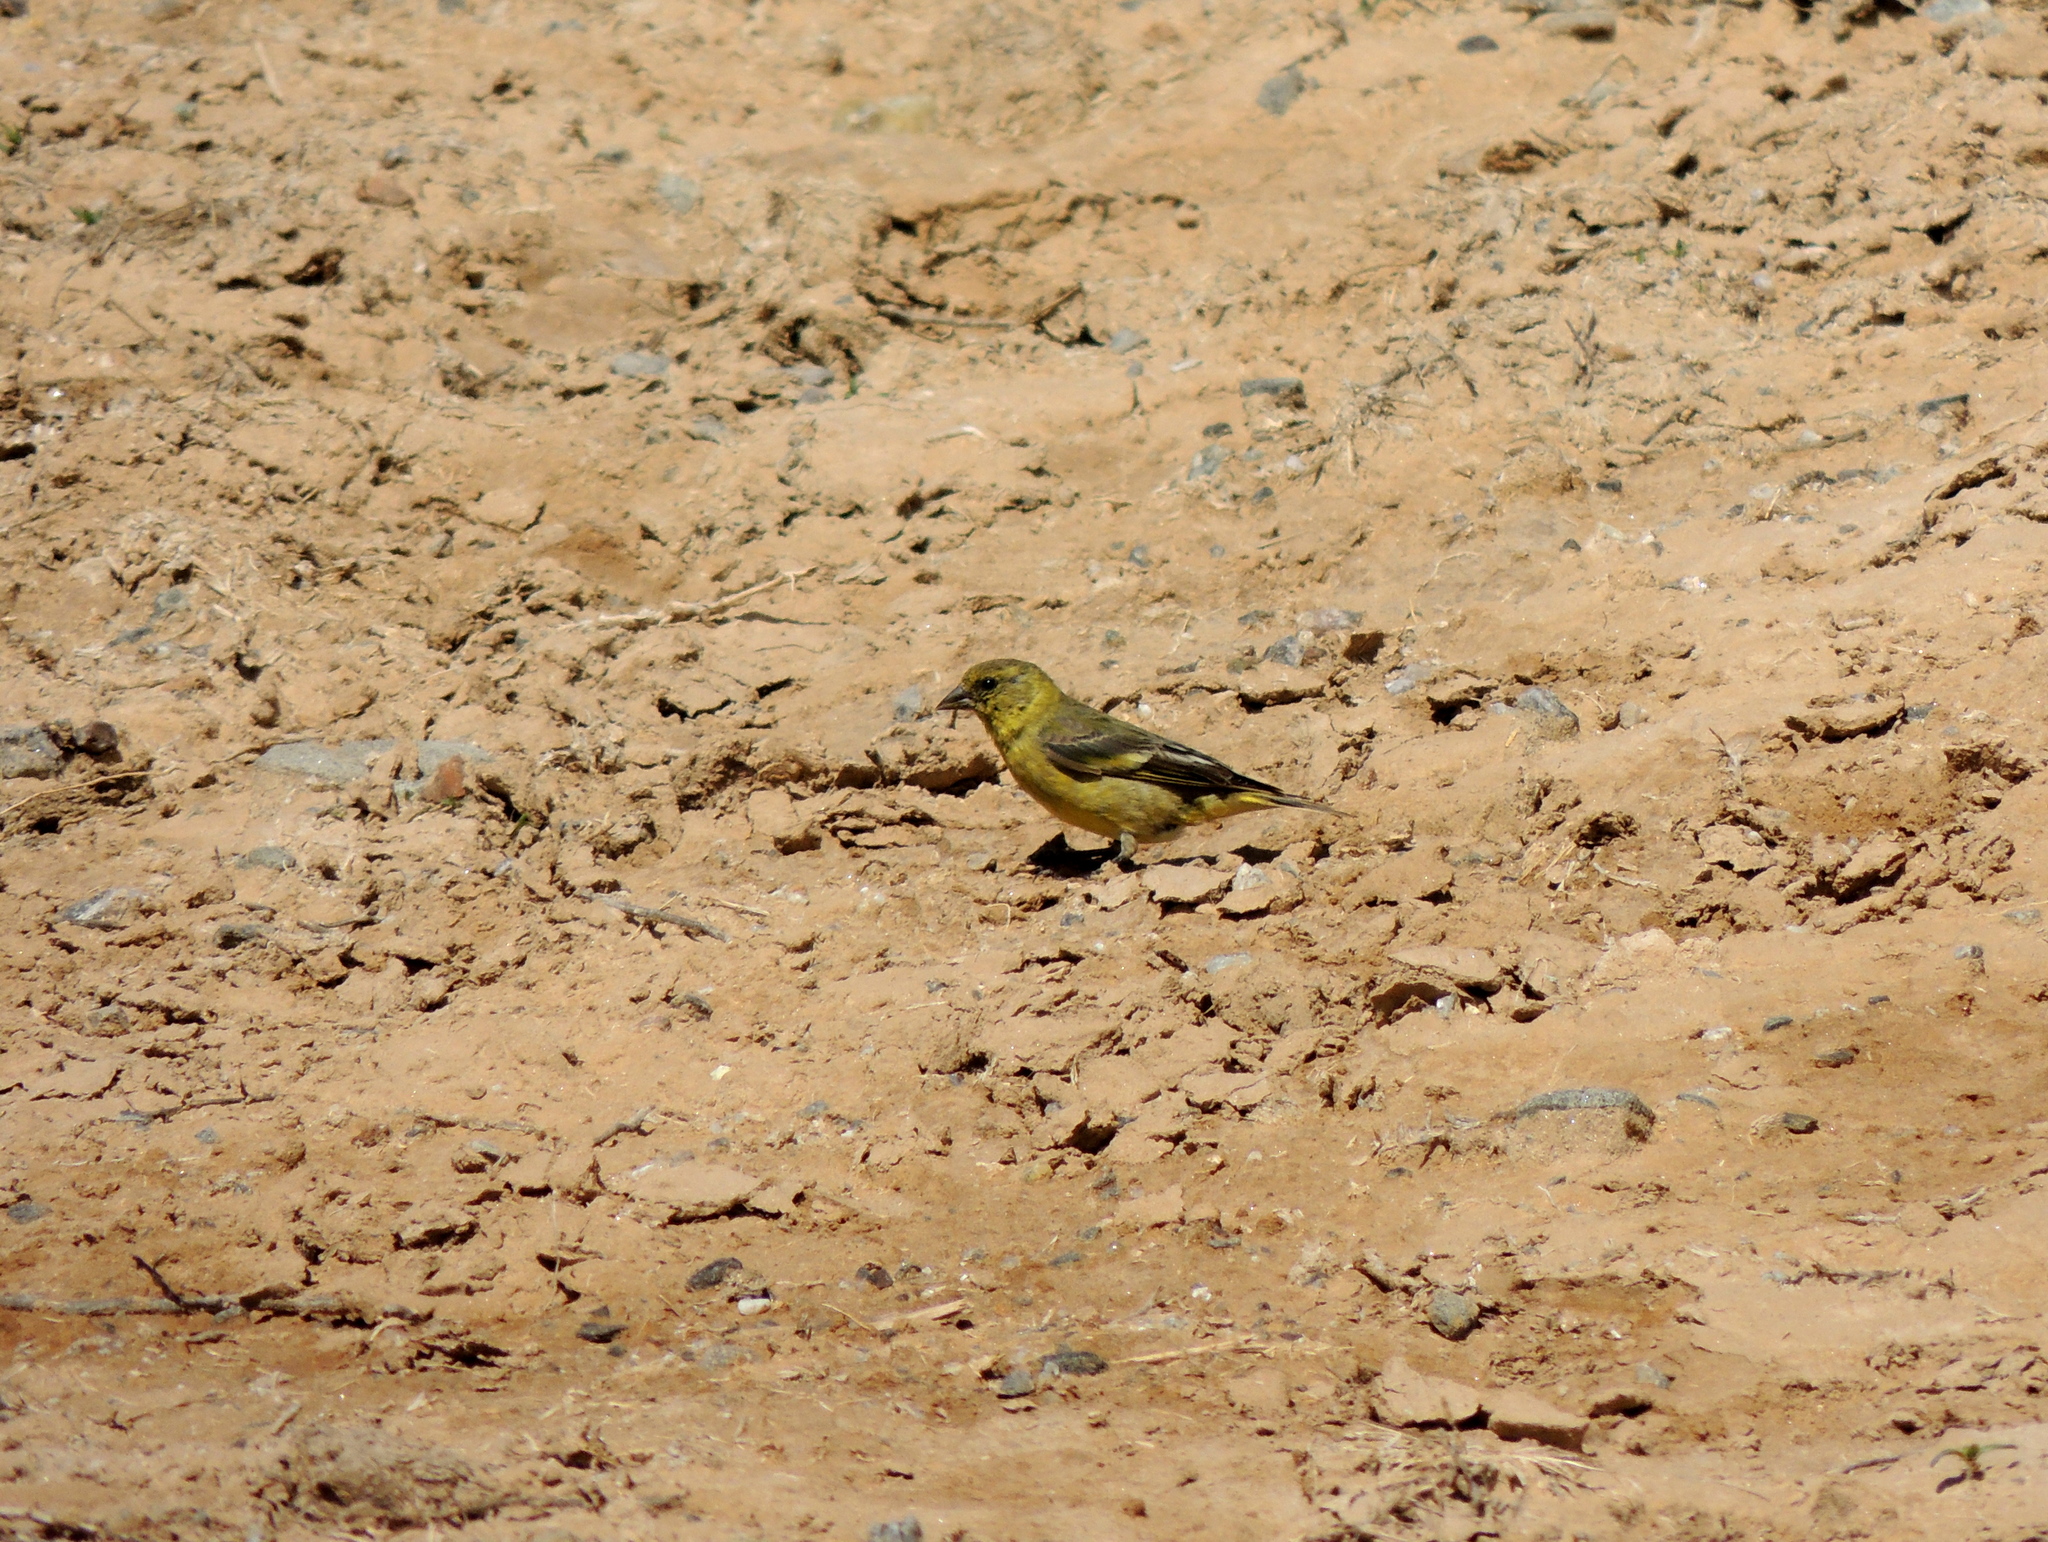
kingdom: Animalia
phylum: Chordata
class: Aves
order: Passeriformes
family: Fringillidae
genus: Spinus
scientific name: Spinus magellanicus
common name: Hooded siskin
